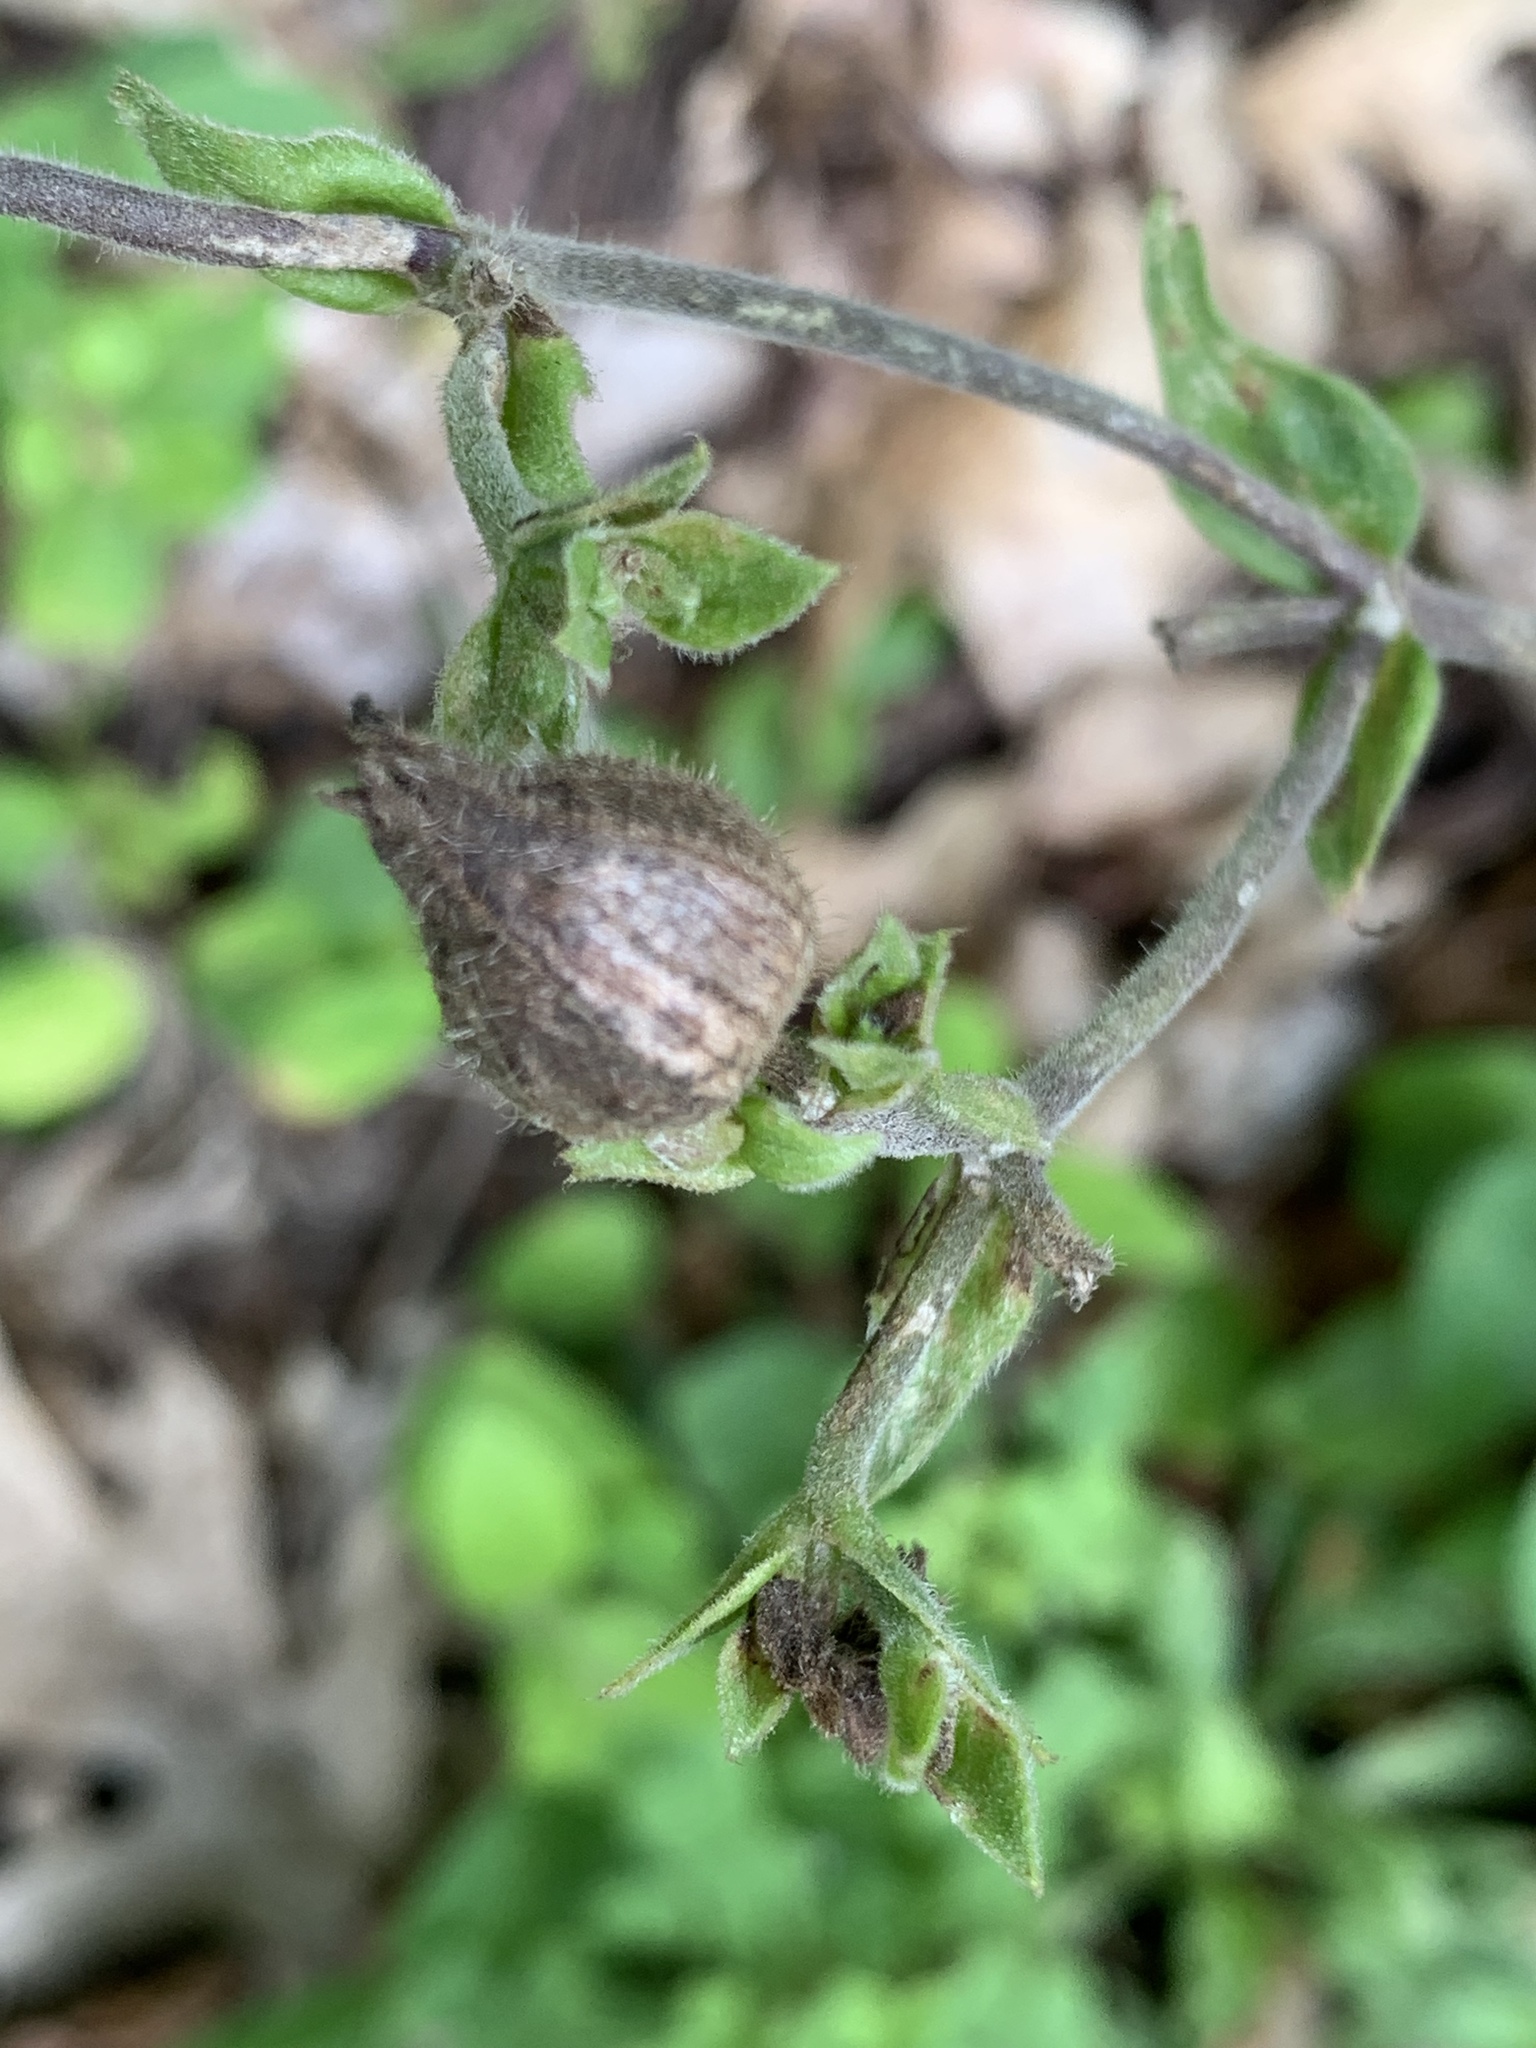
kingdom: Plantae
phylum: Tracheophyta
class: Magnoliopsida
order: Caryophyllales
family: Caryophyllaceae
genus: Silene
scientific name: Silene latifolia
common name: White campion
